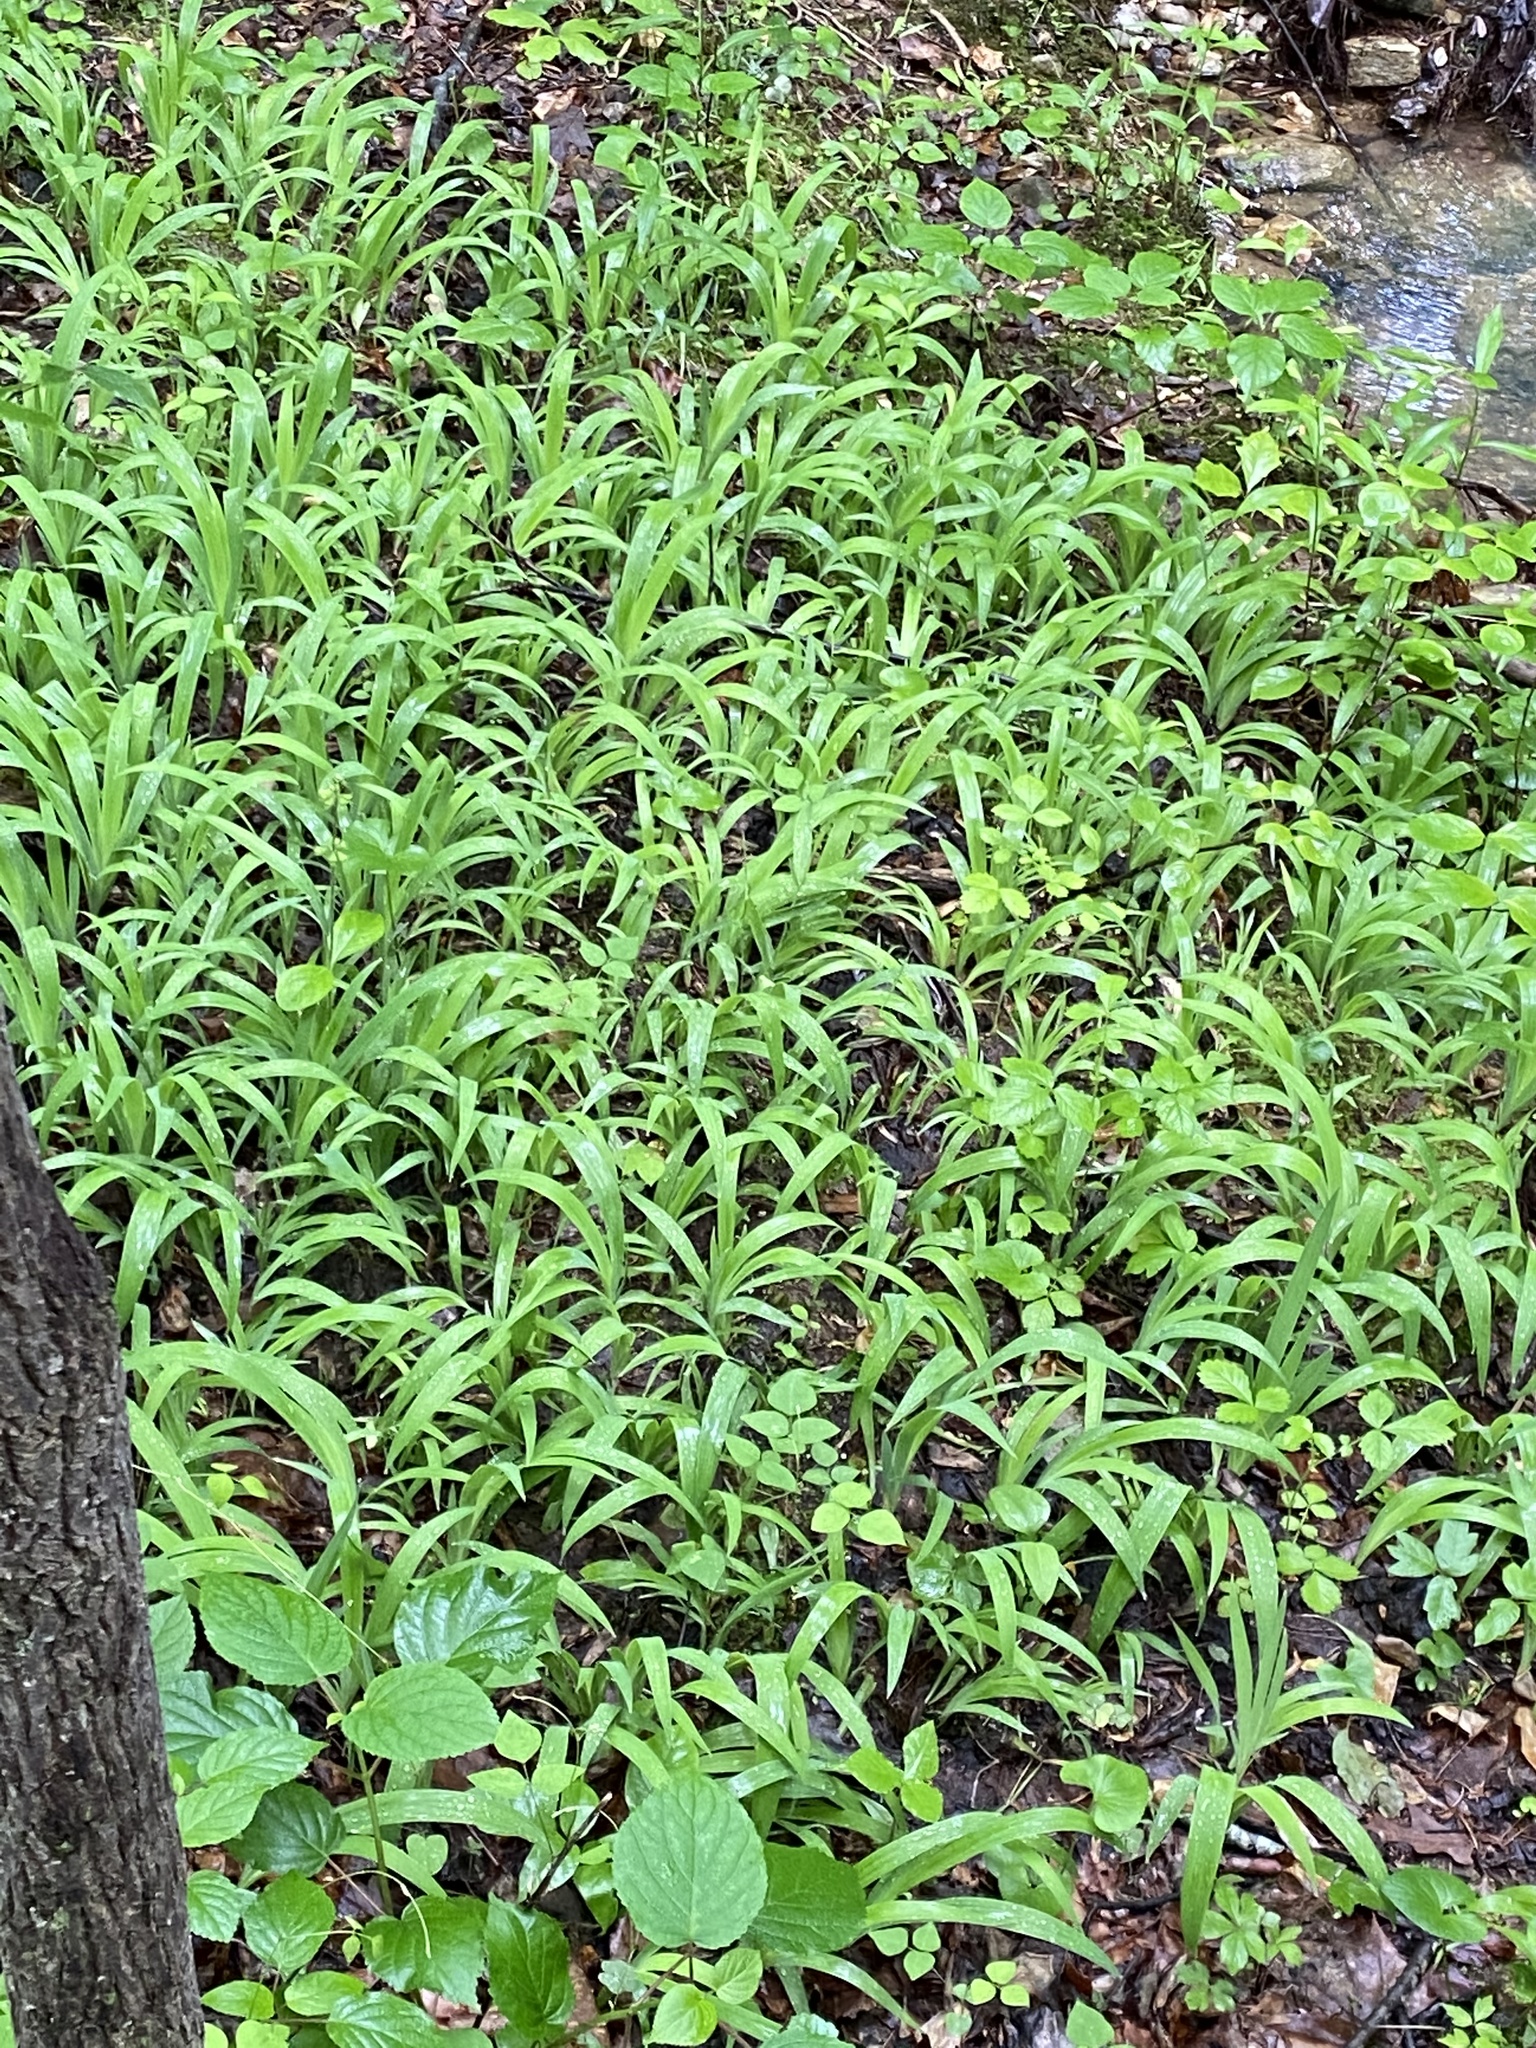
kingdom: Plantae
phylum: Tracheophyta
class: Liliopsida
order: Asparagales
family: Iridaceae
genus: Iris
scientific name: Iris cristata
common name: Crested iris
